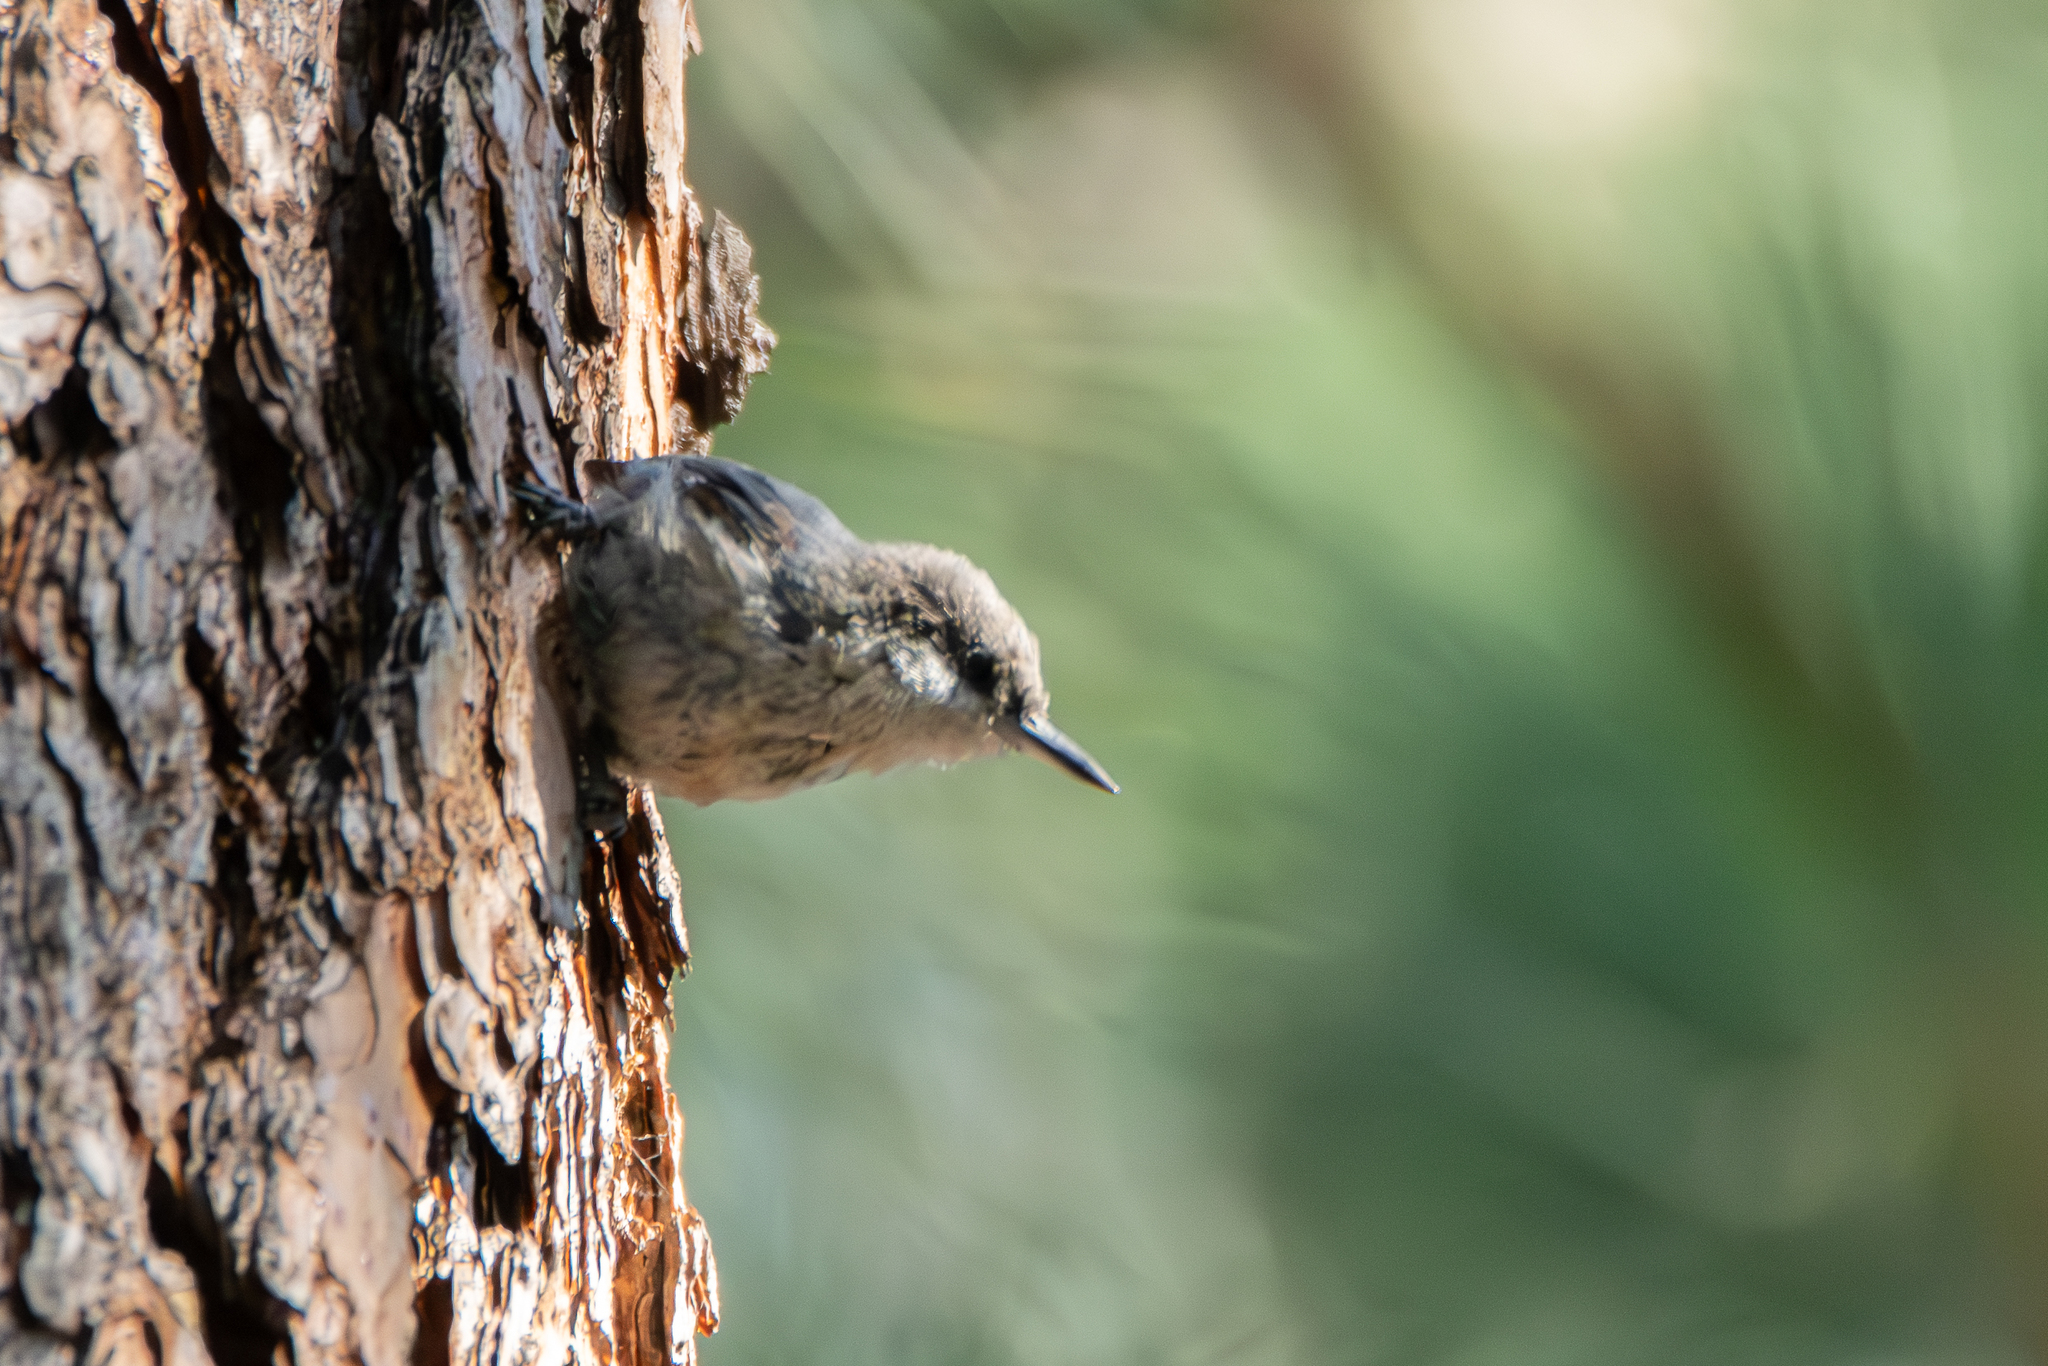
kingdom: Animalia
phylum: Chordata
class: Aves
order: Passeriformes
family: Sittidae
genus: Sitta
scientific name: Sitta pygmaea
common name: Pygmy nuthatch
